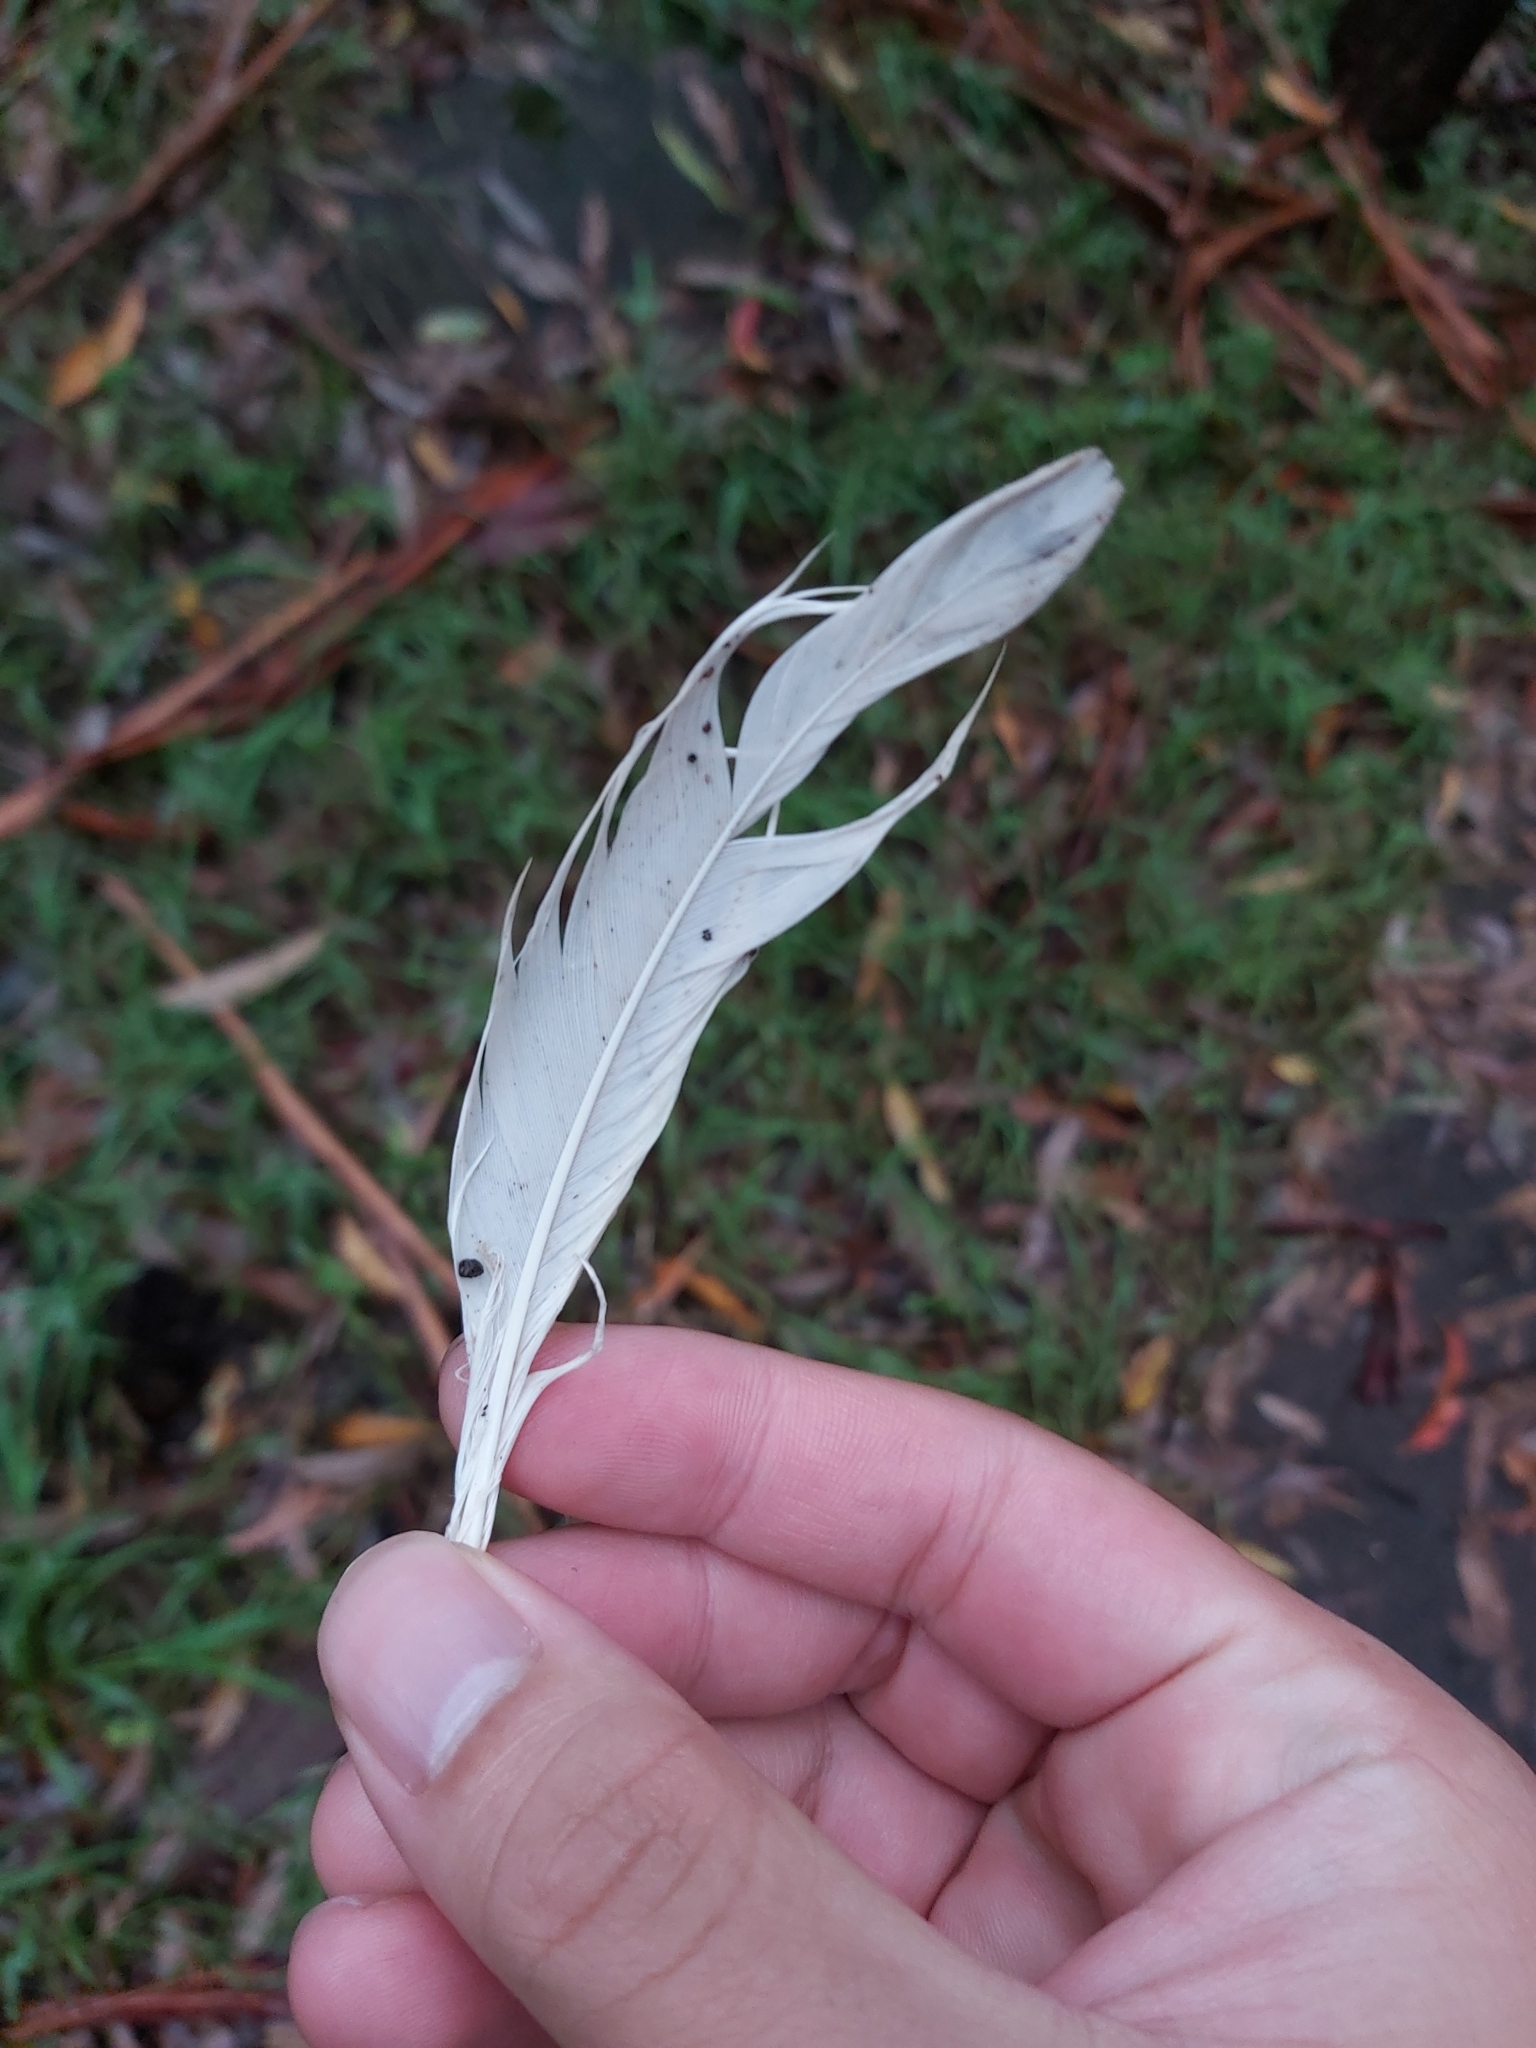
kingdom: Animalia
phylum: Chordata
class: Aves
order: Psittaciformes
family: Psittacidae
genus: Cacatua
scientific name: Cacatua galerita
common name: Sulphur-crested cockatoo
